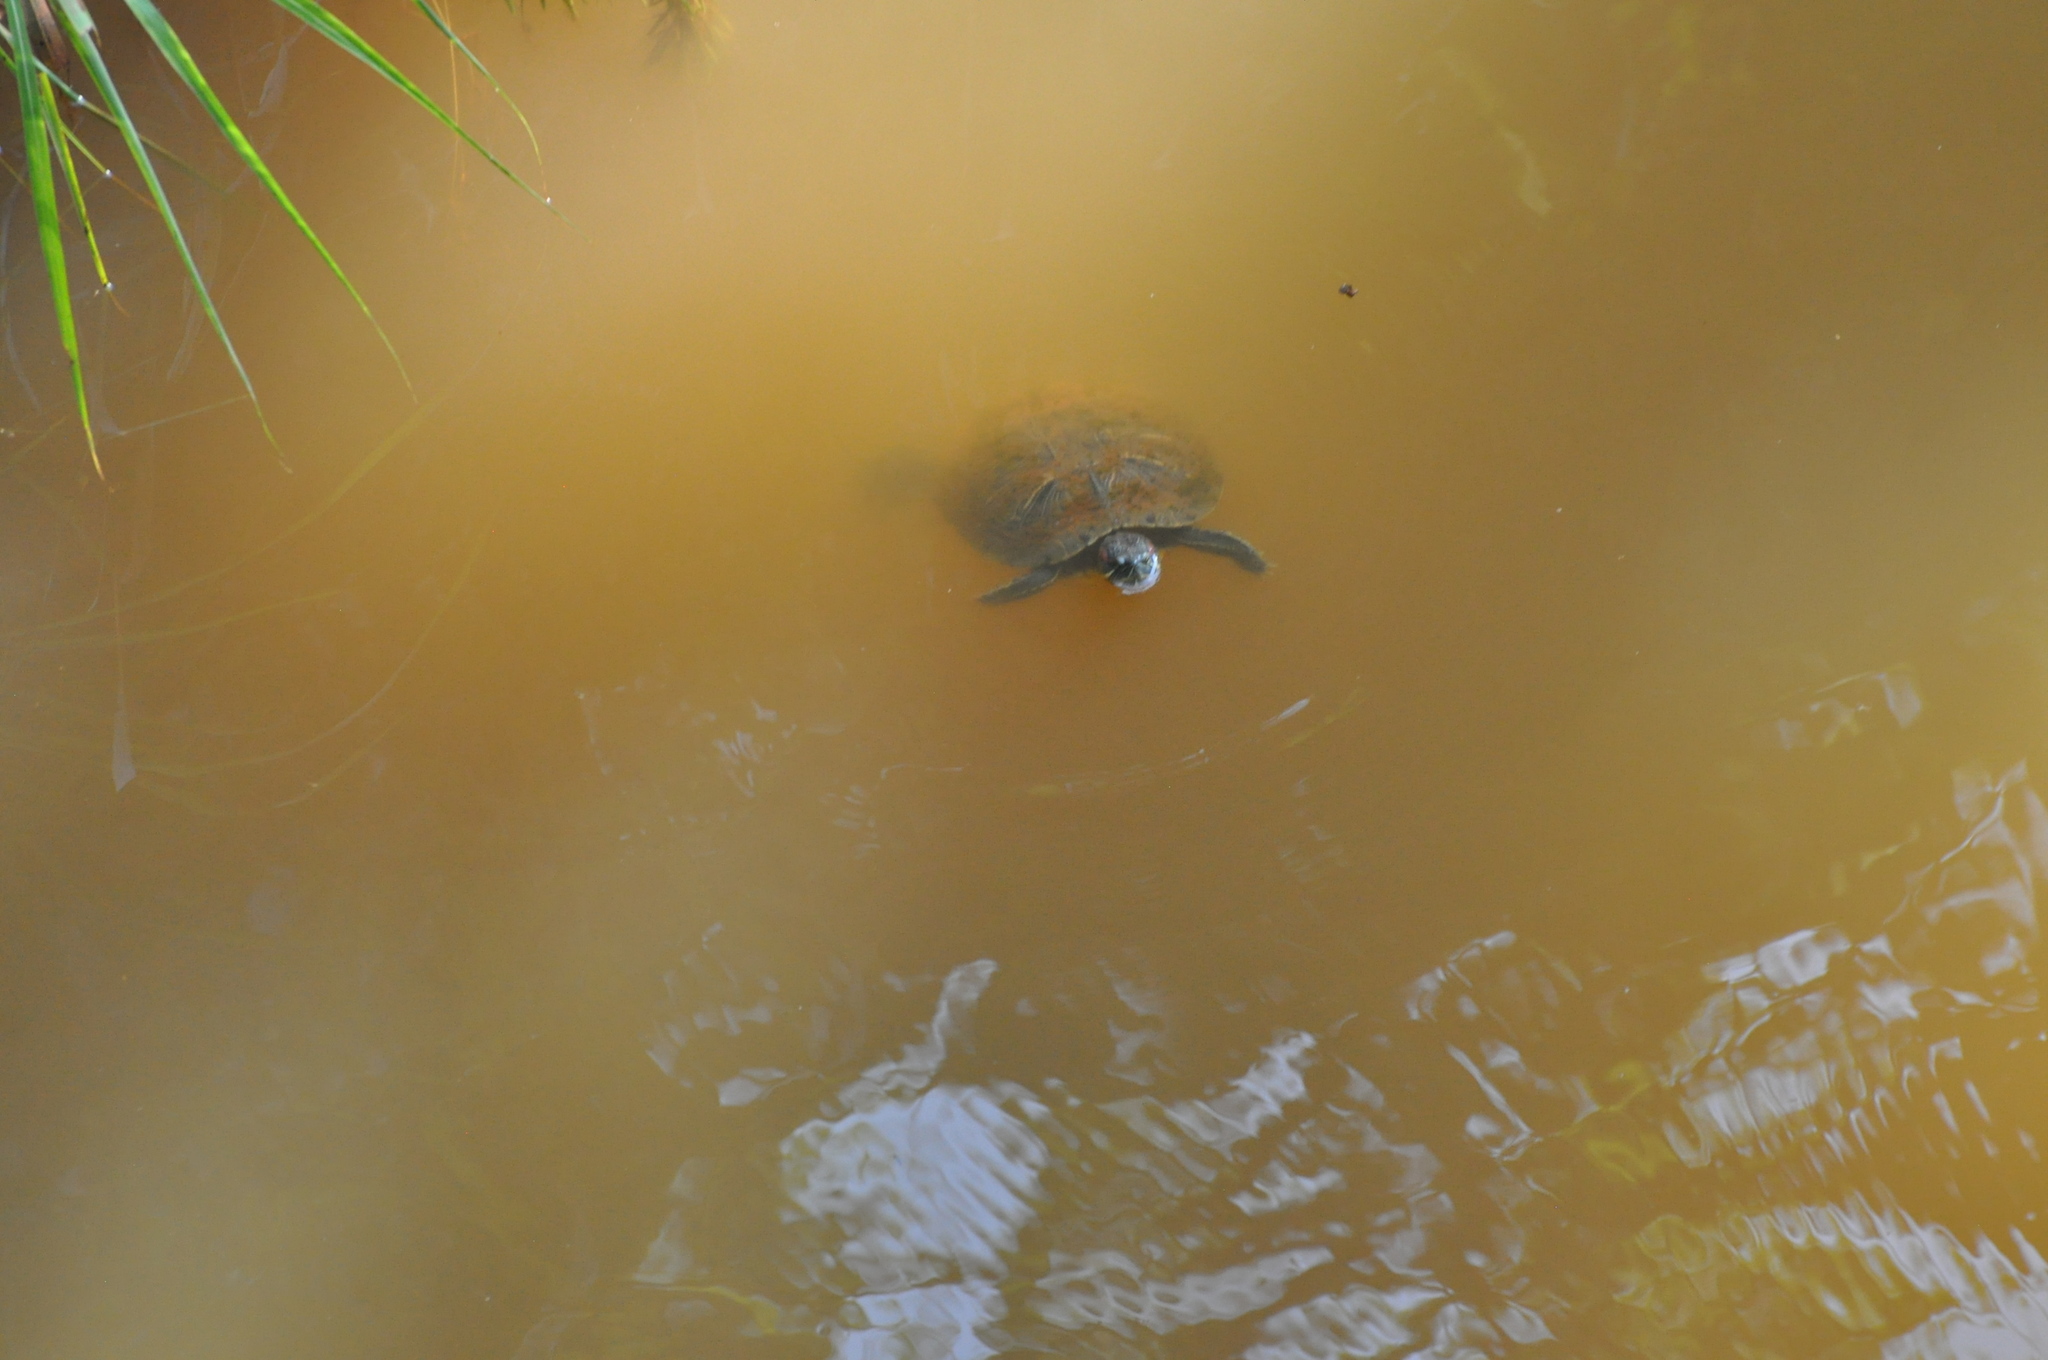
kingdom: Animalia
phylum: Chordata
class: Testudines
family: Emydidae
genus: Trachemys
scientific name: Trachemys scripta
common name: Slider
